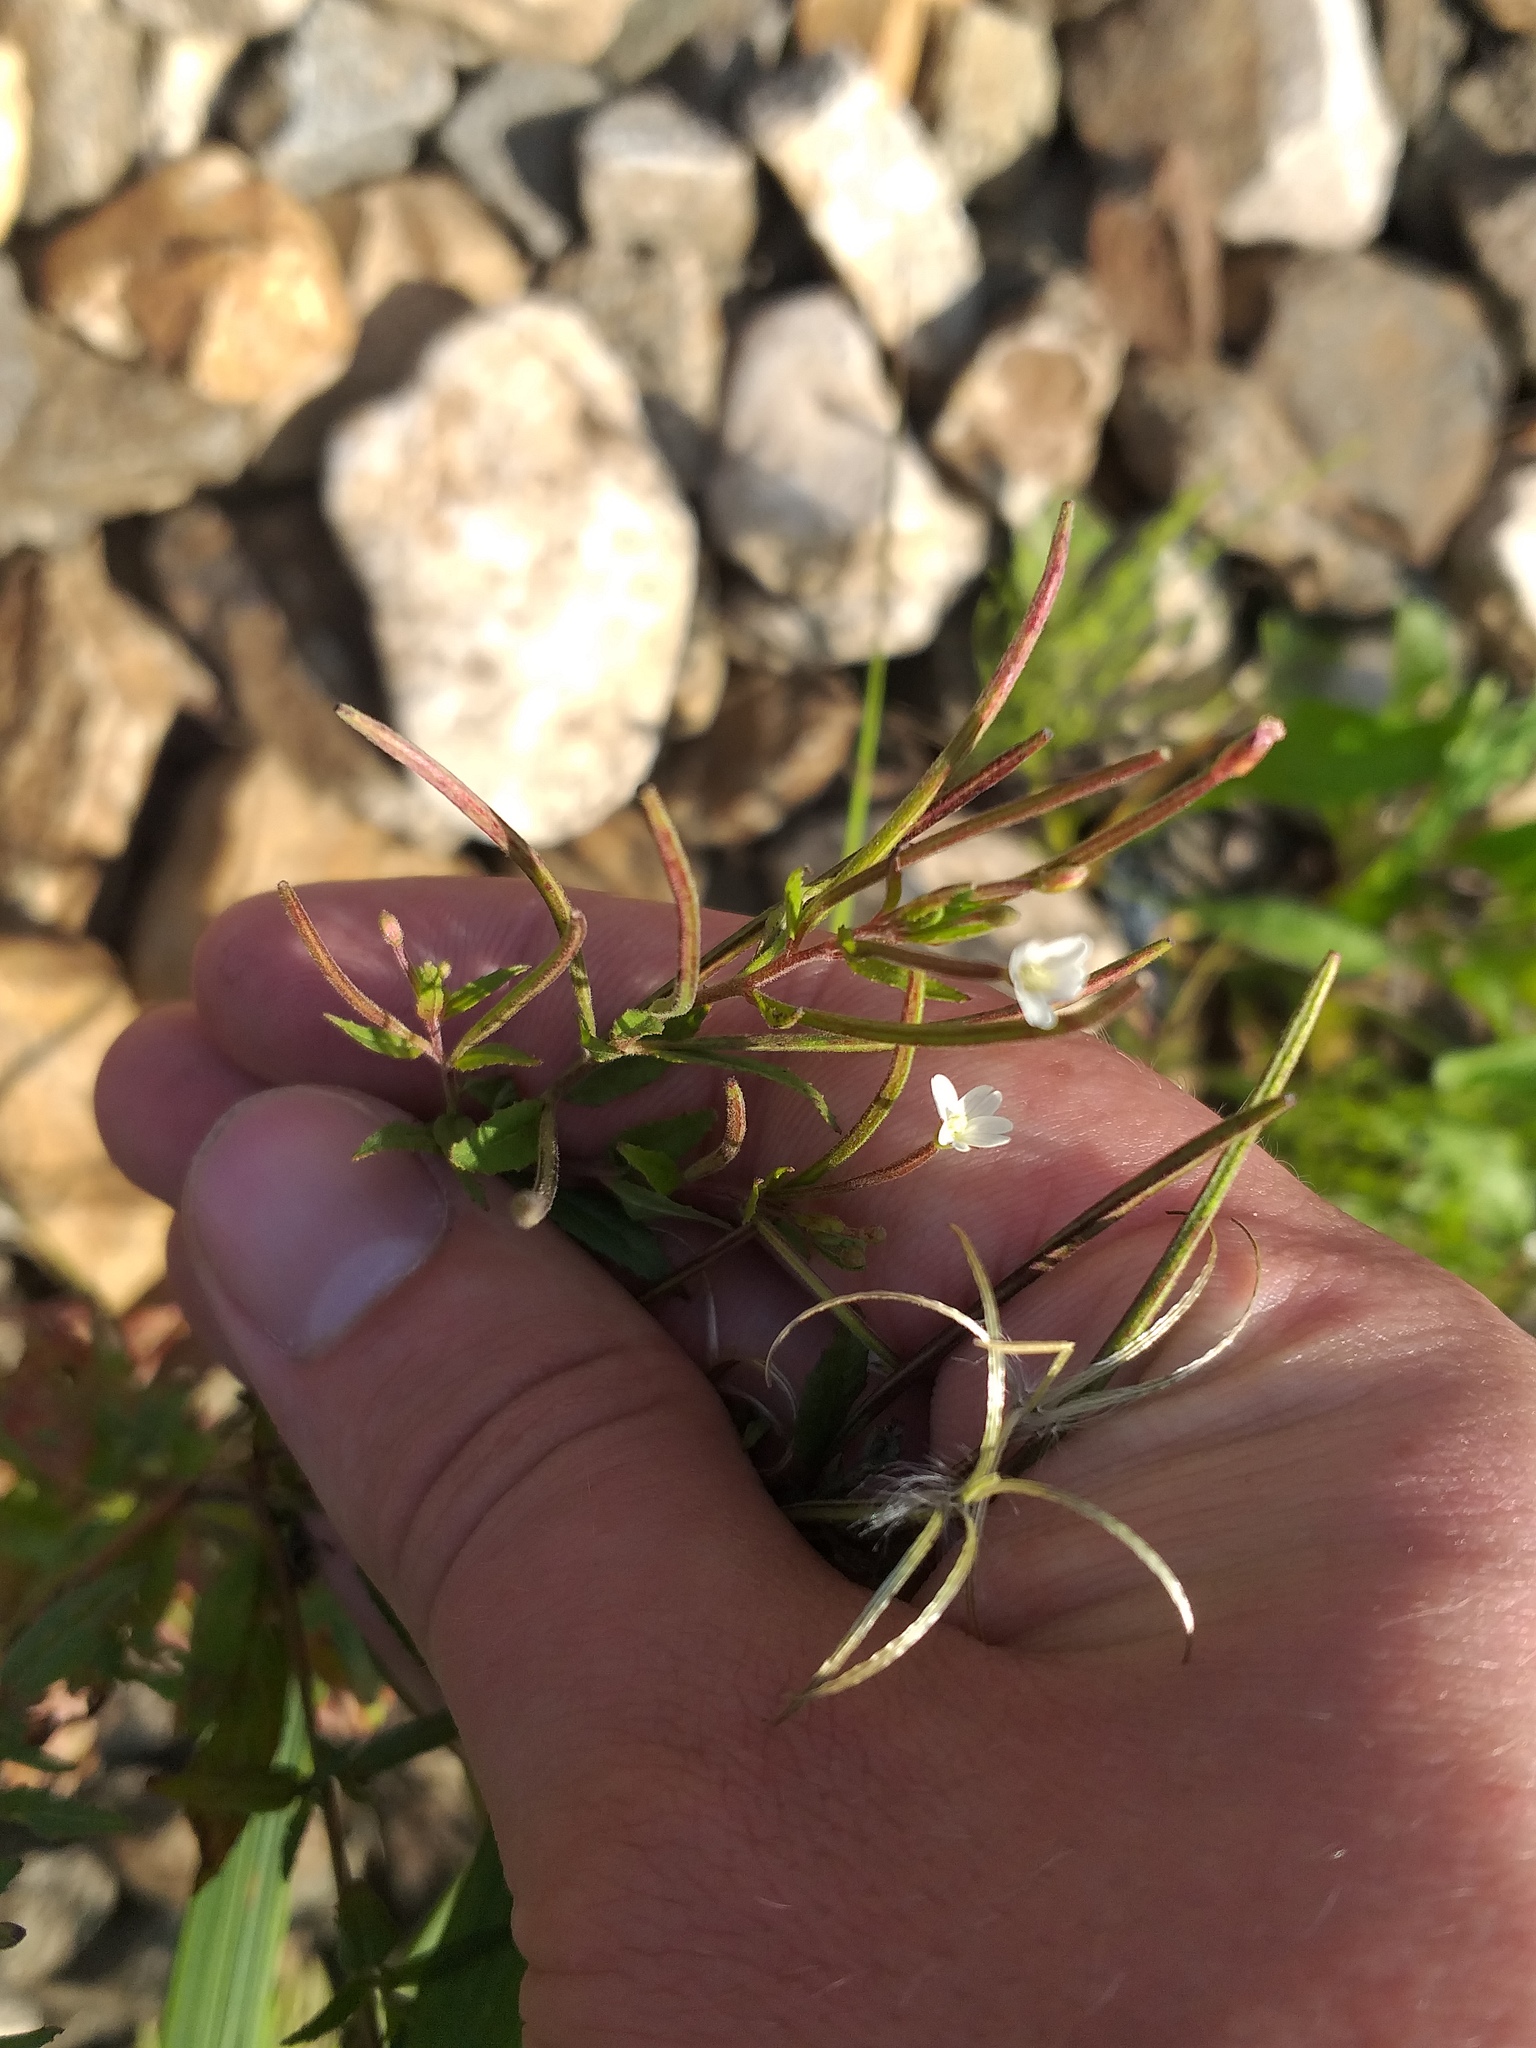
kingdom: Plantae
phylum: Tracheophyta
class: Magnoliopsida
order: Myrtales
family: Onagraceae
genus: Epilobium
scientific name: Epilobium pseudorubescens
